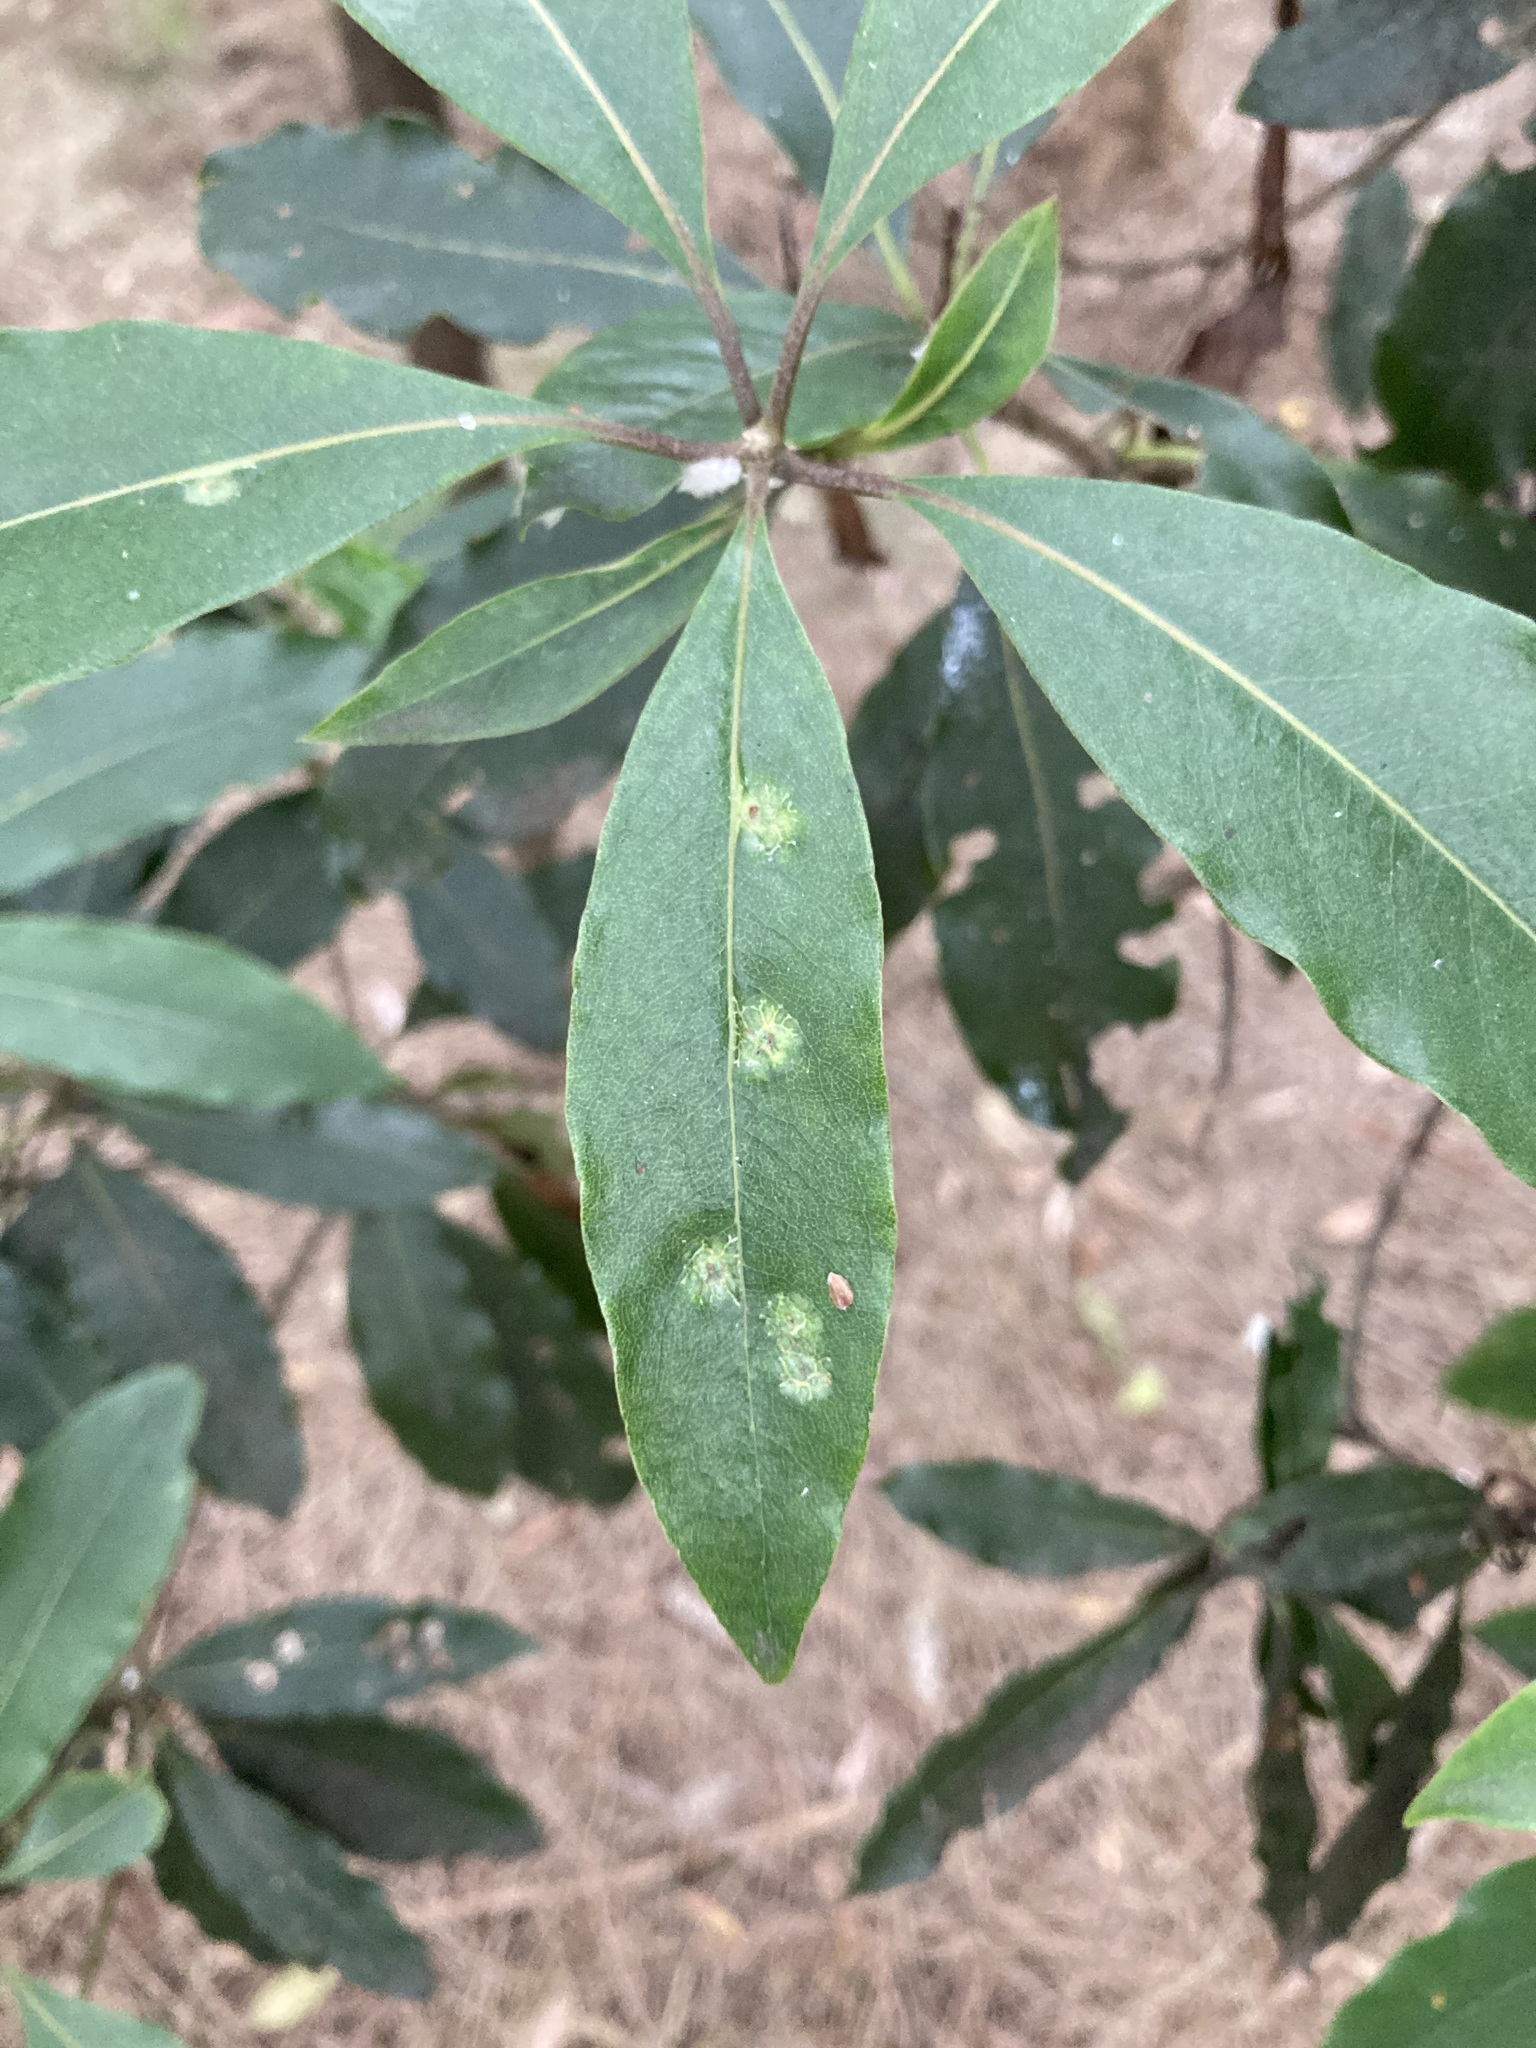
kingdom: Animalia
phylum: Arthropoda
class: Insecta
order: Diptera
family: Agromyzidae
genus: Phytoliriomyza
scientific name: Phytoliriomyza pittosporophylli
